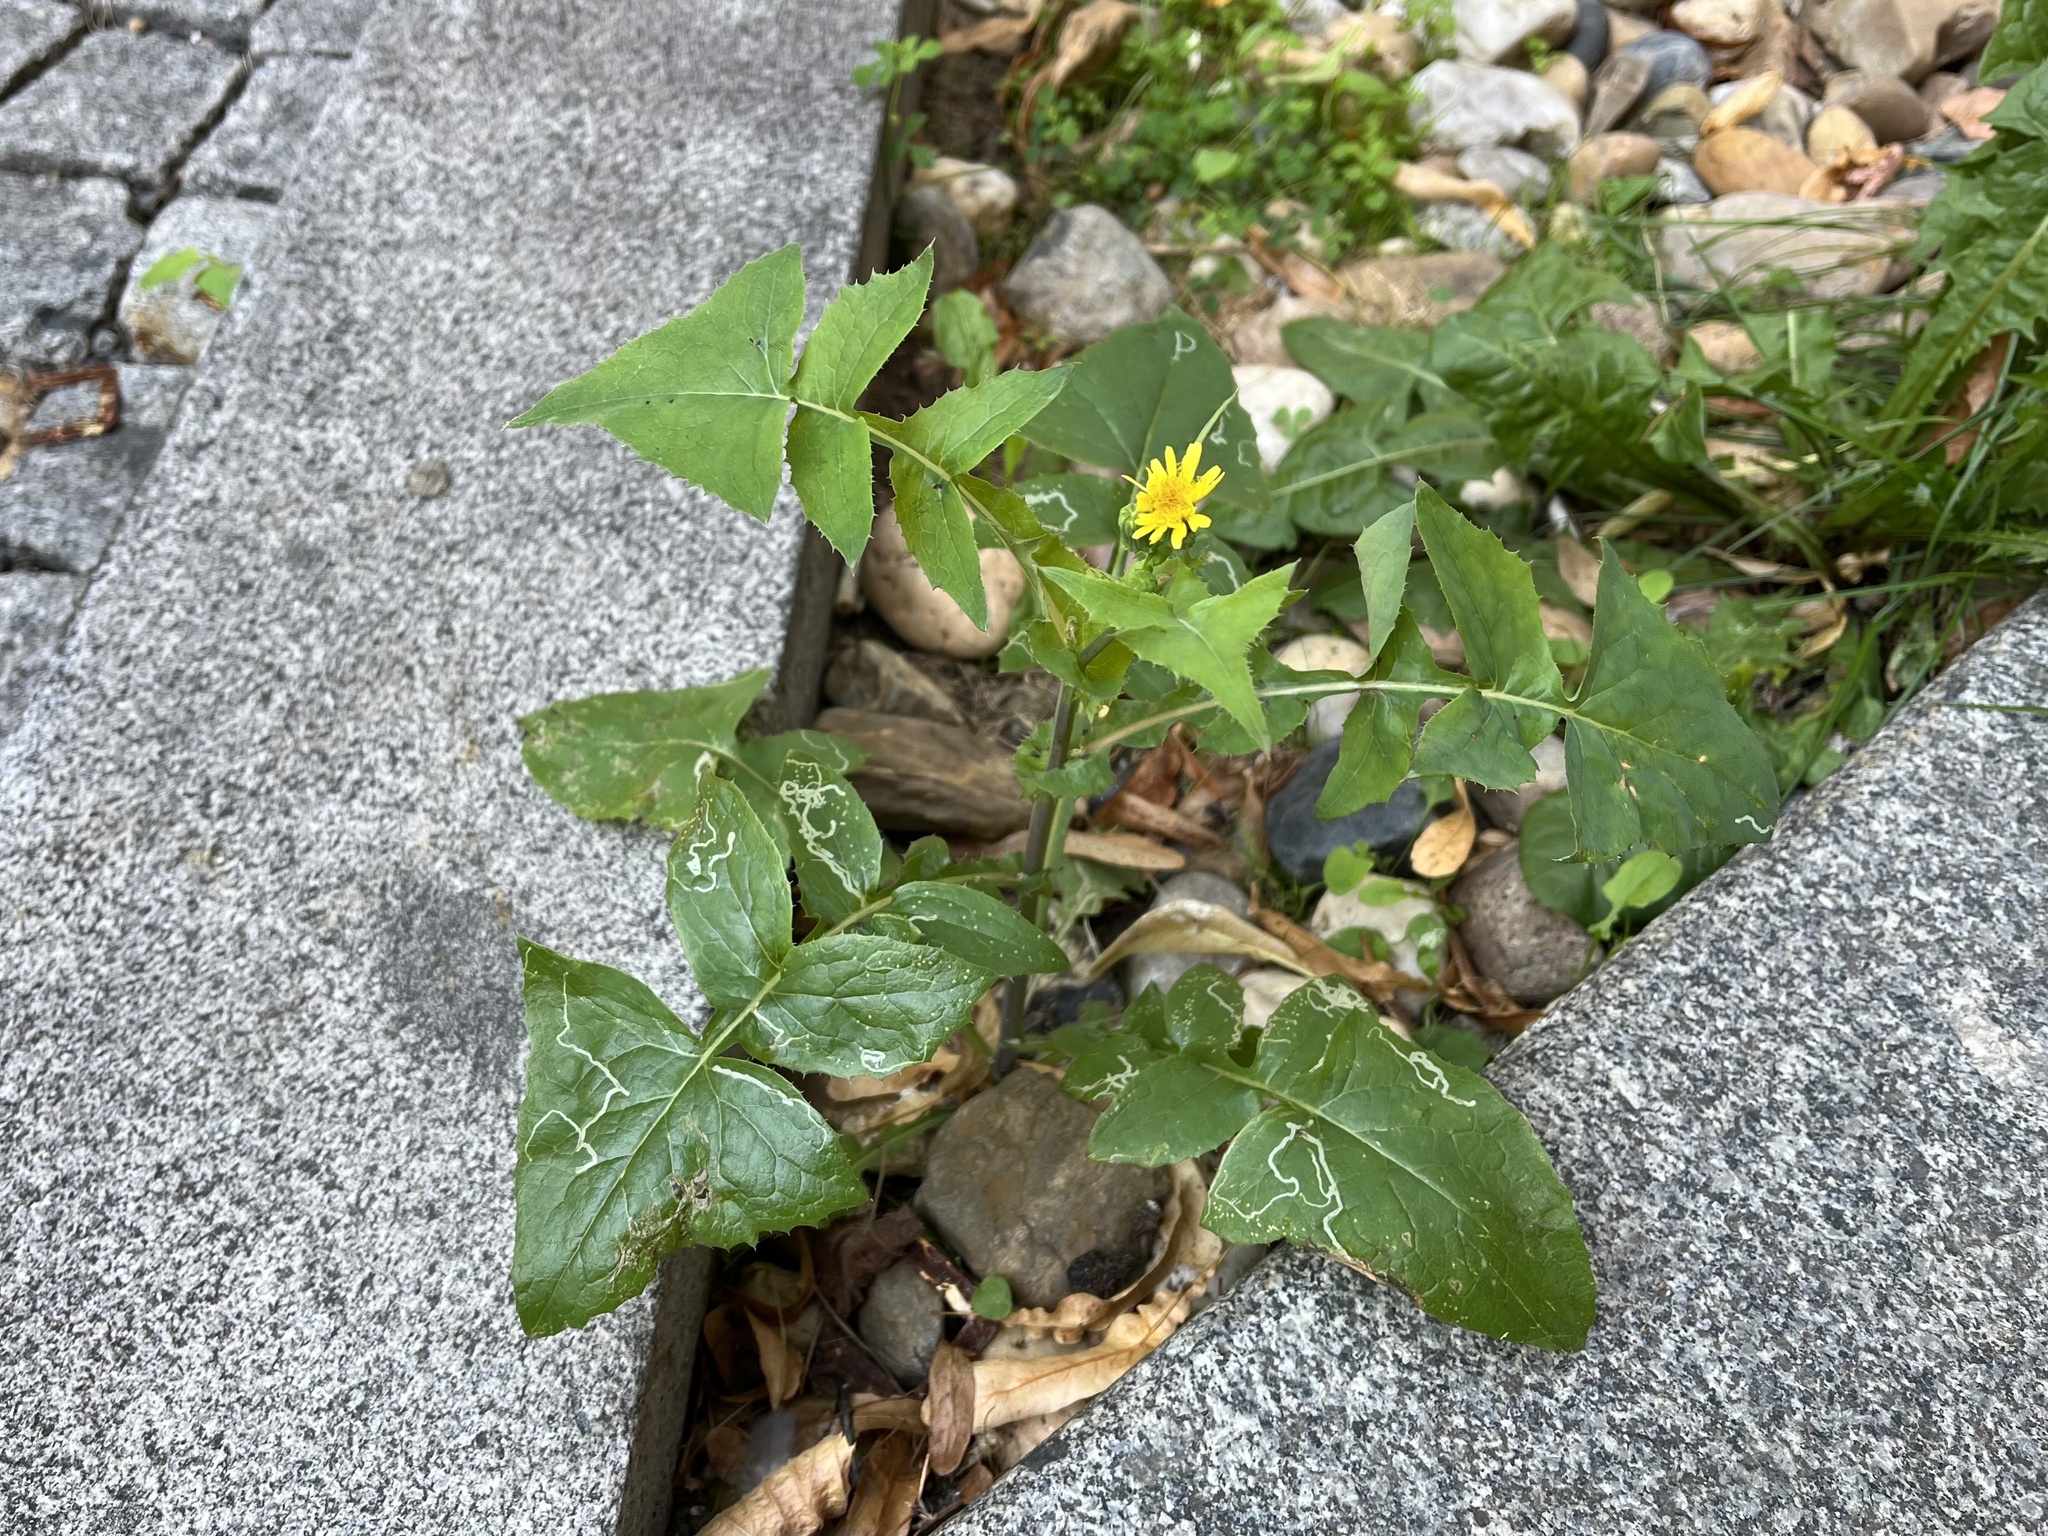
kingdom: Plantae
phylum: Tracheophyta
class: Magnoliopsida
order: Asterales
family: Asteraceae
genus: Sonchus
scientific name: Sonchus oleraceus
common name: Common sowthistle
